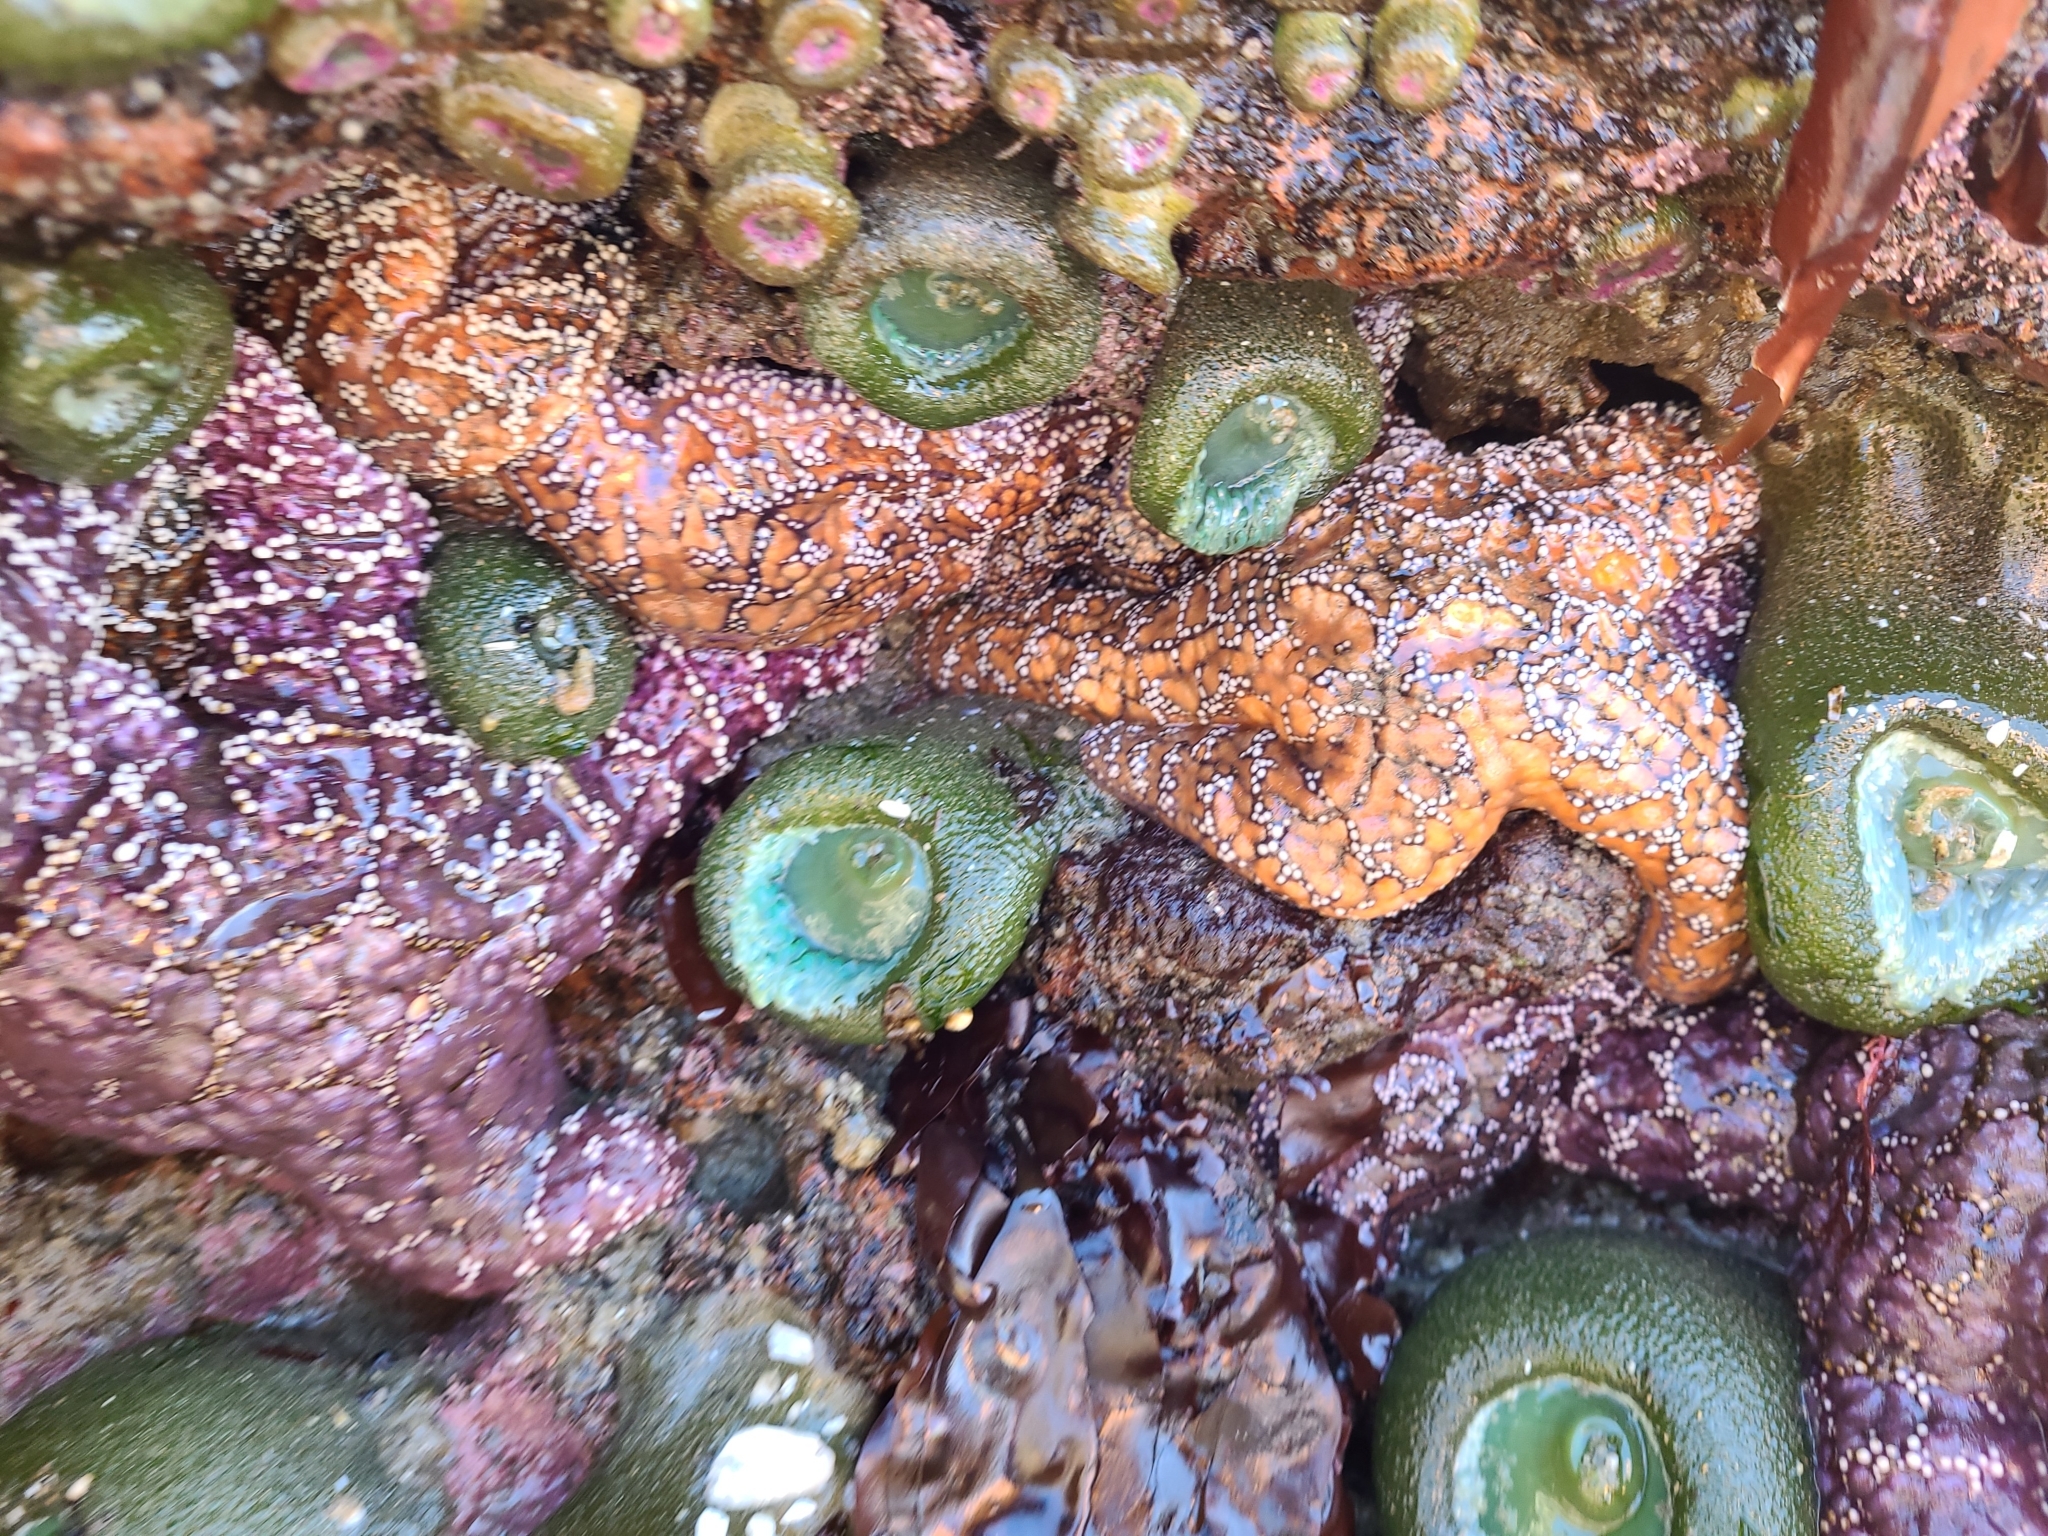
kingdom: Animalia
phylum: Echinodermata
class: Asteroidea
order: Forcipulatida
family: Asteriidae
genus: Pisaster
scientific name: Pisaster ochraceus
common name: Ochre stars
